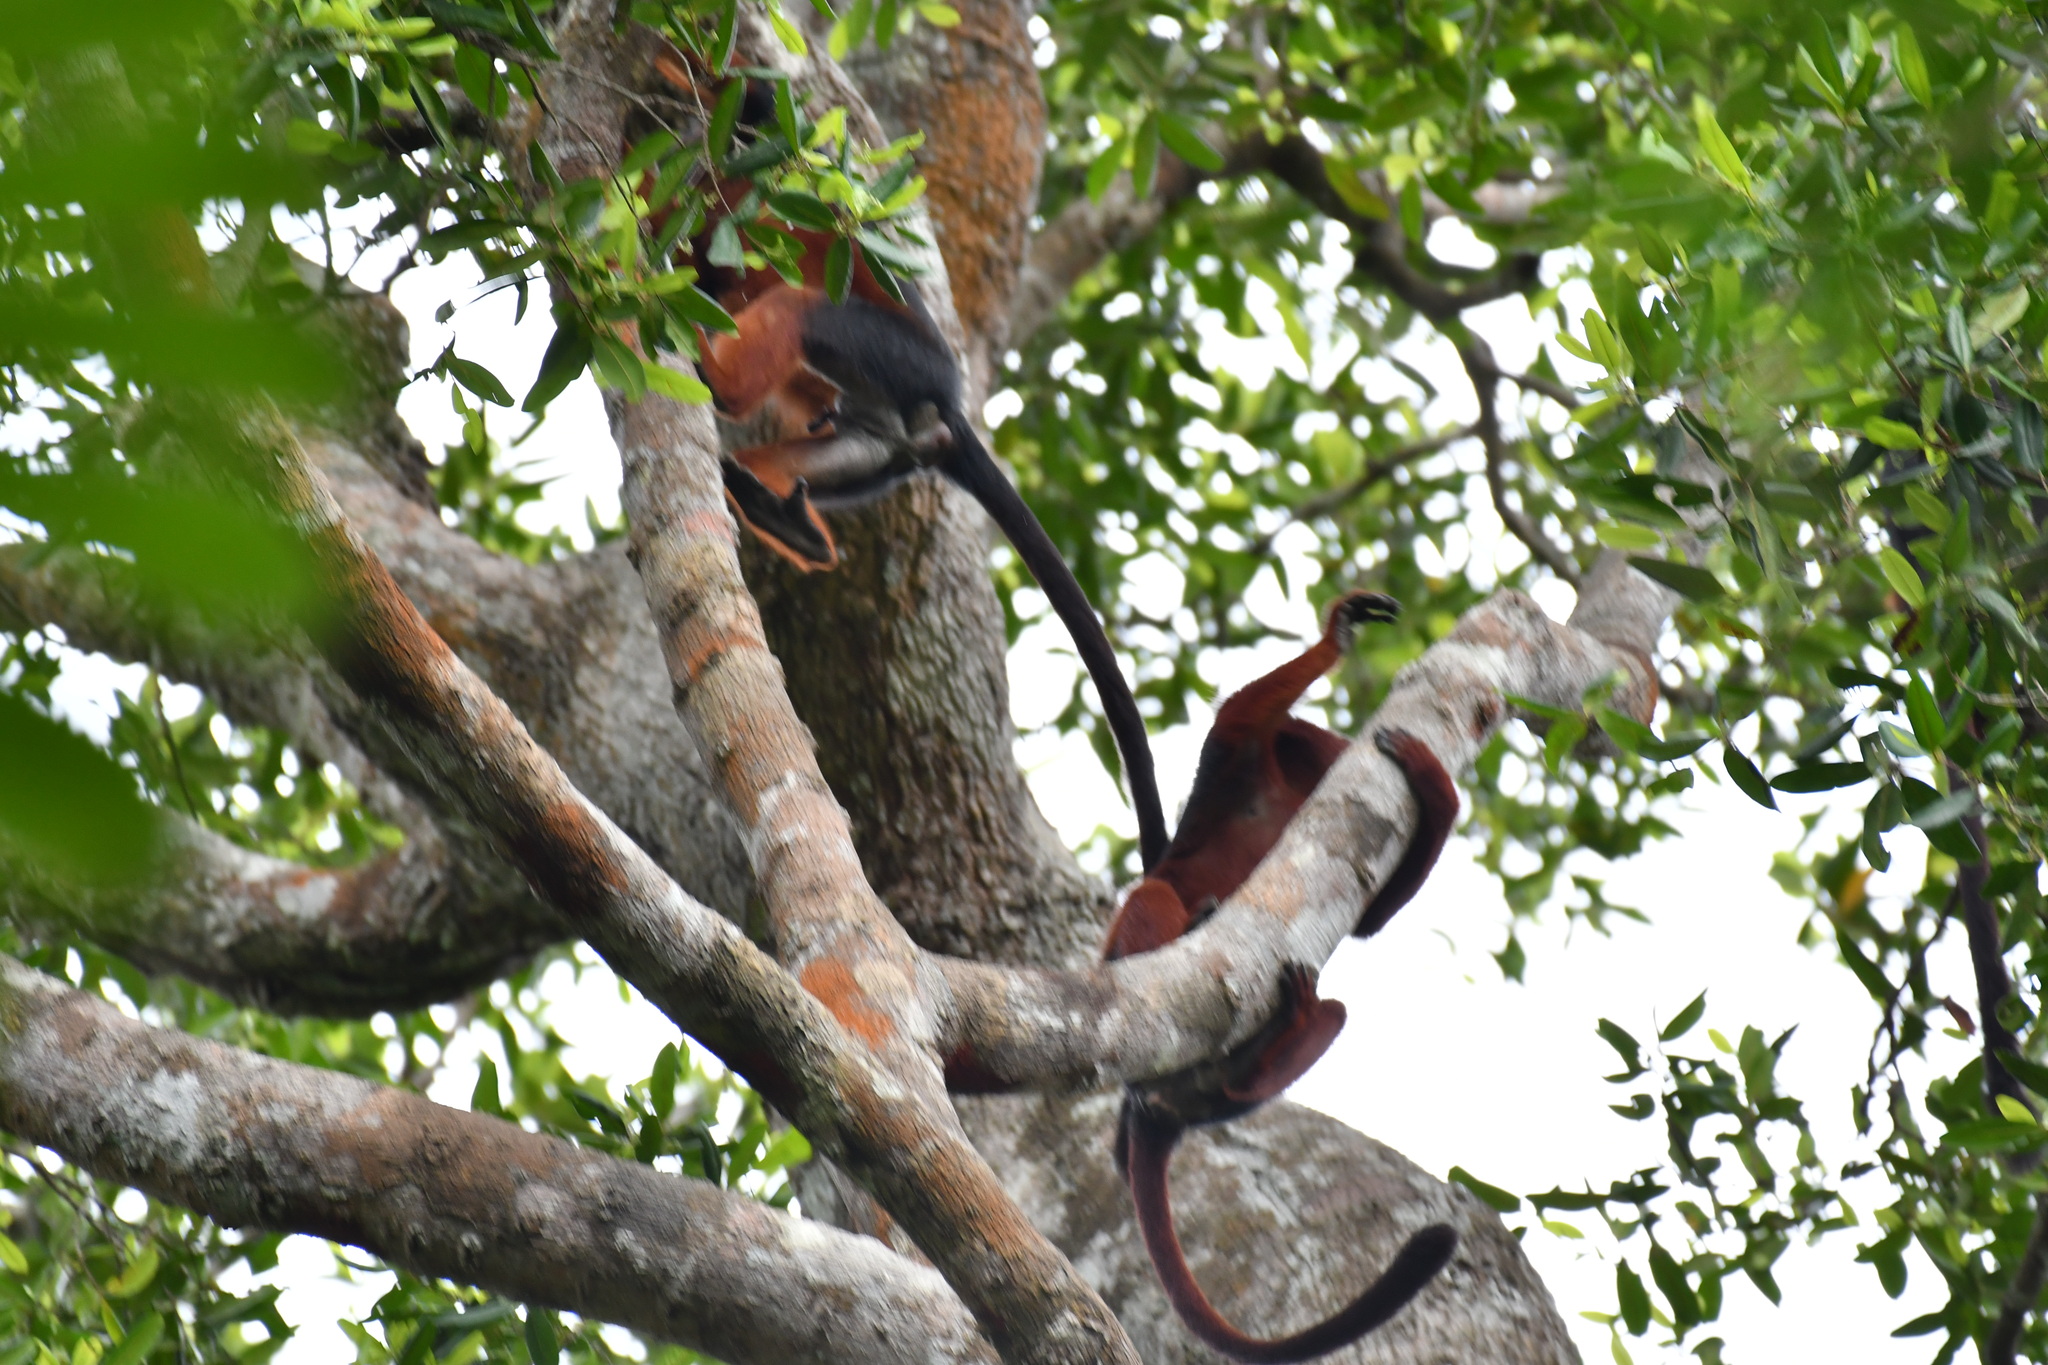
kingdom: Animalia
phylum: Chordata
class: Mammalia
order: Primates
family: Cercopithecidae
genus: Piliocolobus
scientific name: Piliocolobus badius
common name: Western red colobus
